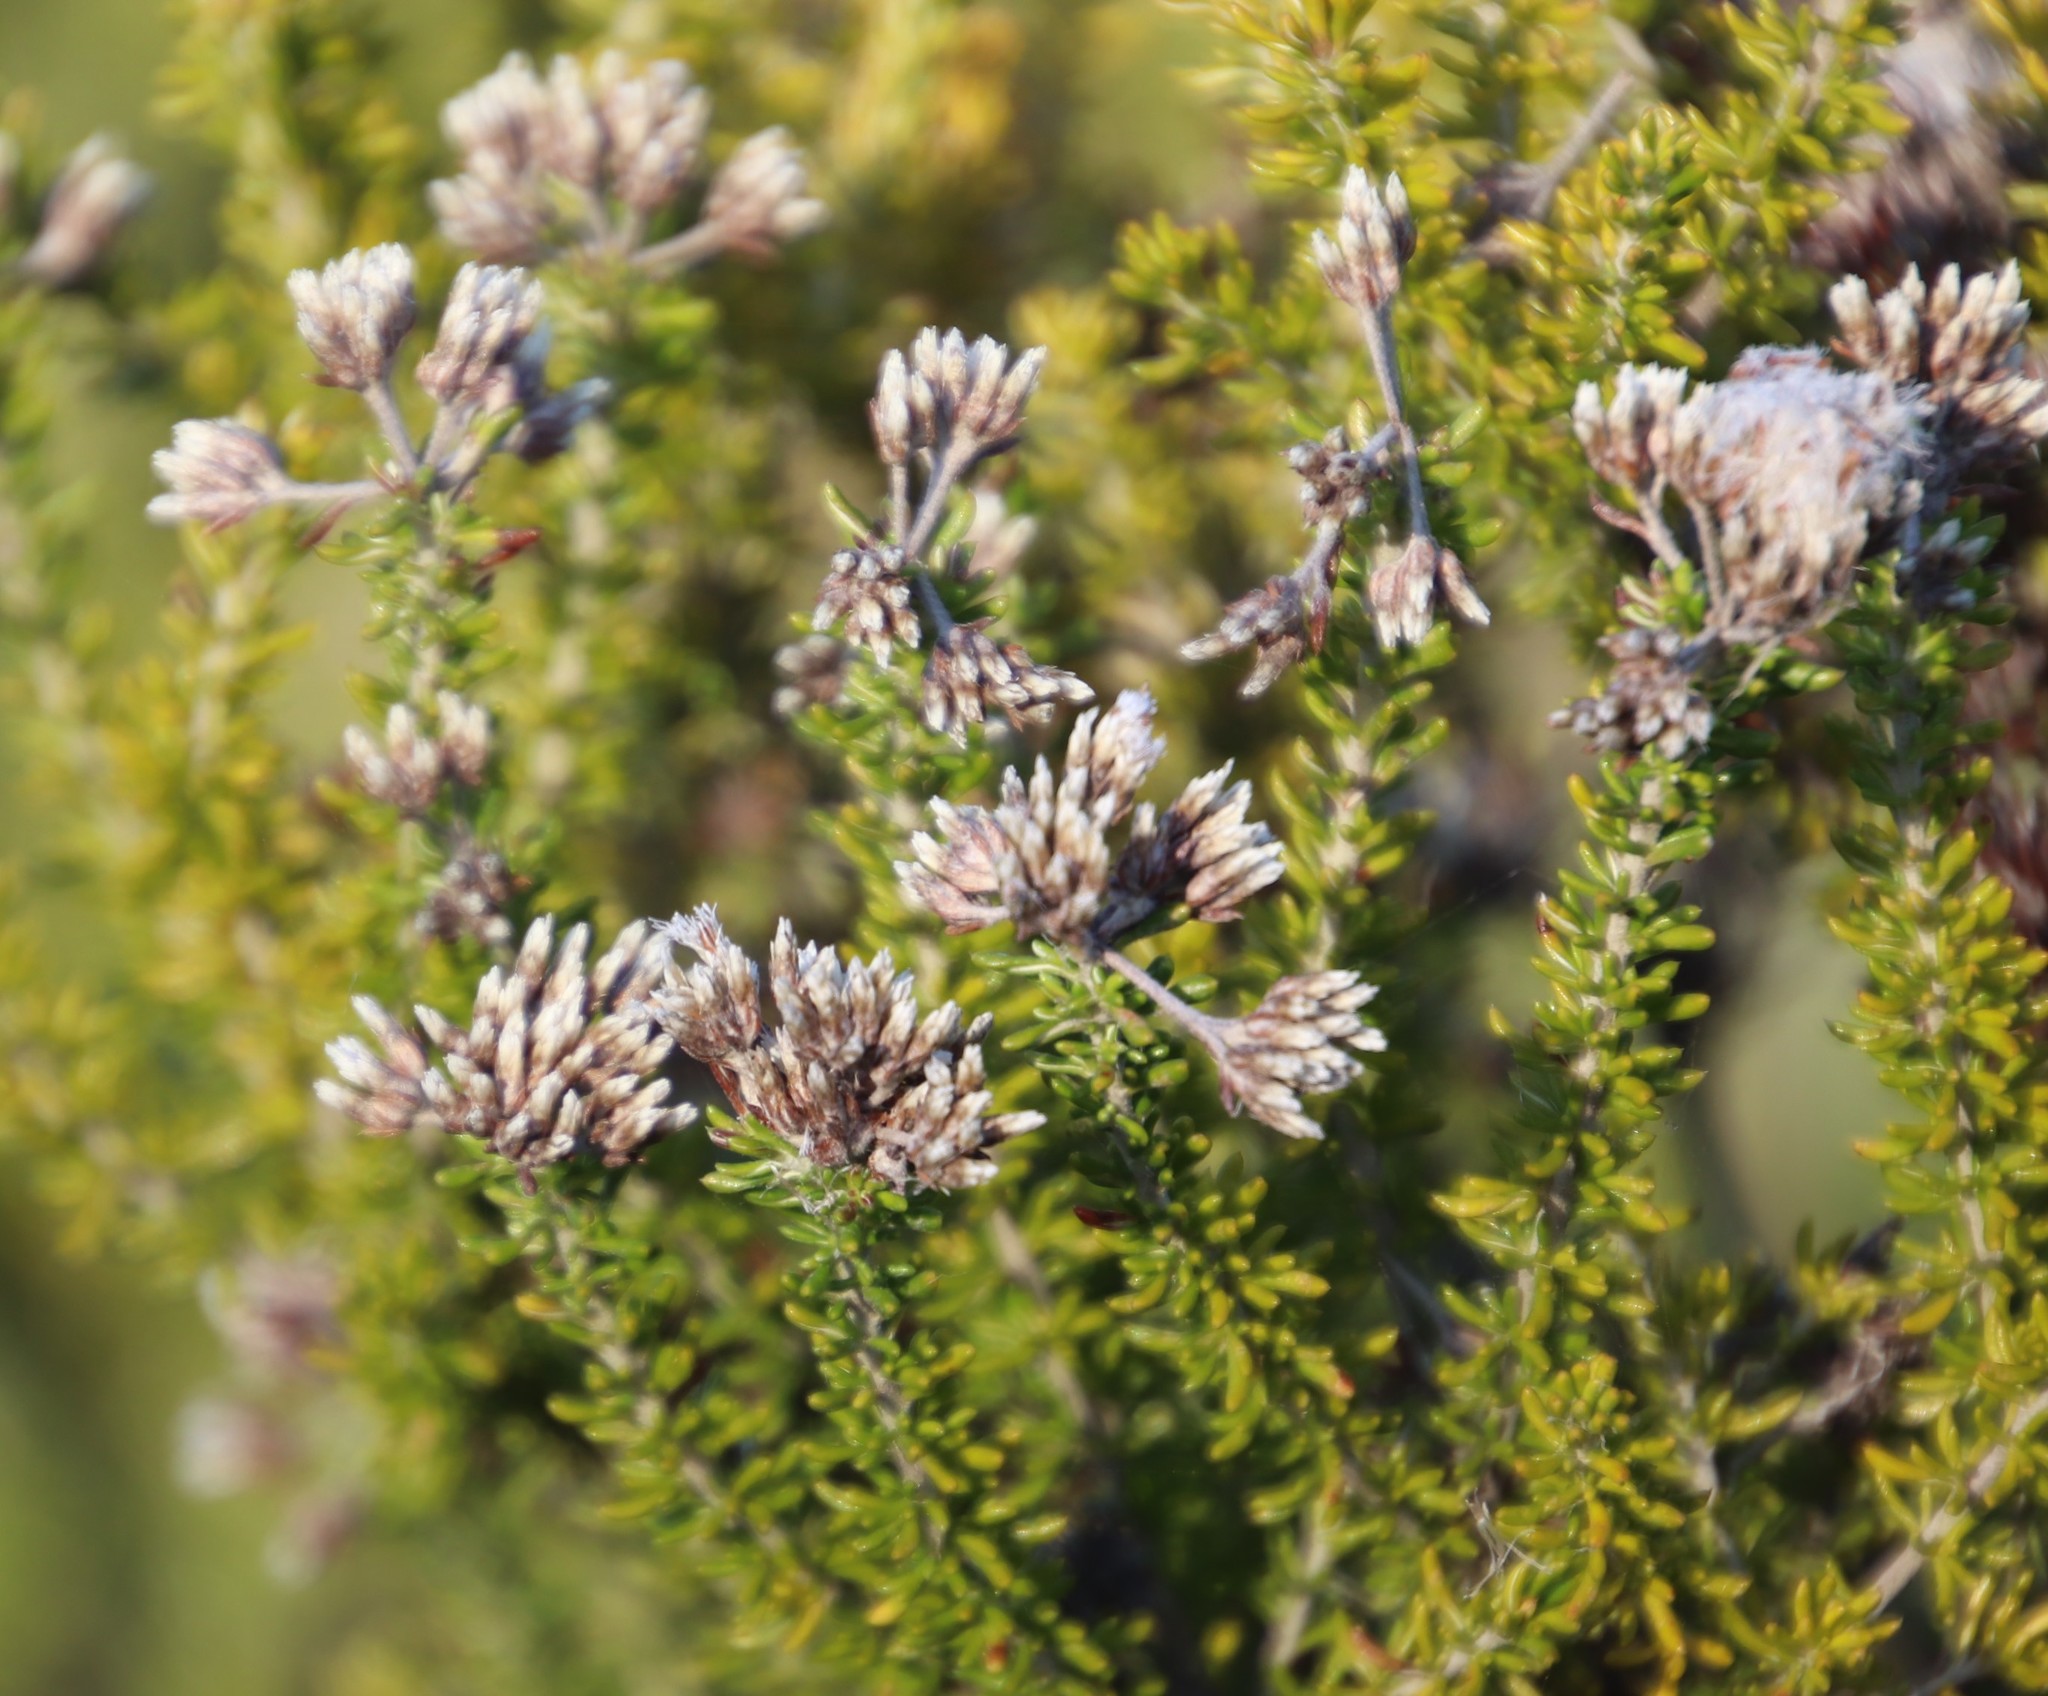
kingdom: Plantae
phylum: Tracheophyta
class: Magnoliopsida
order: Asterales
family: Asteraceae
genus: Metalasia
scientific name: Metalasia densa
